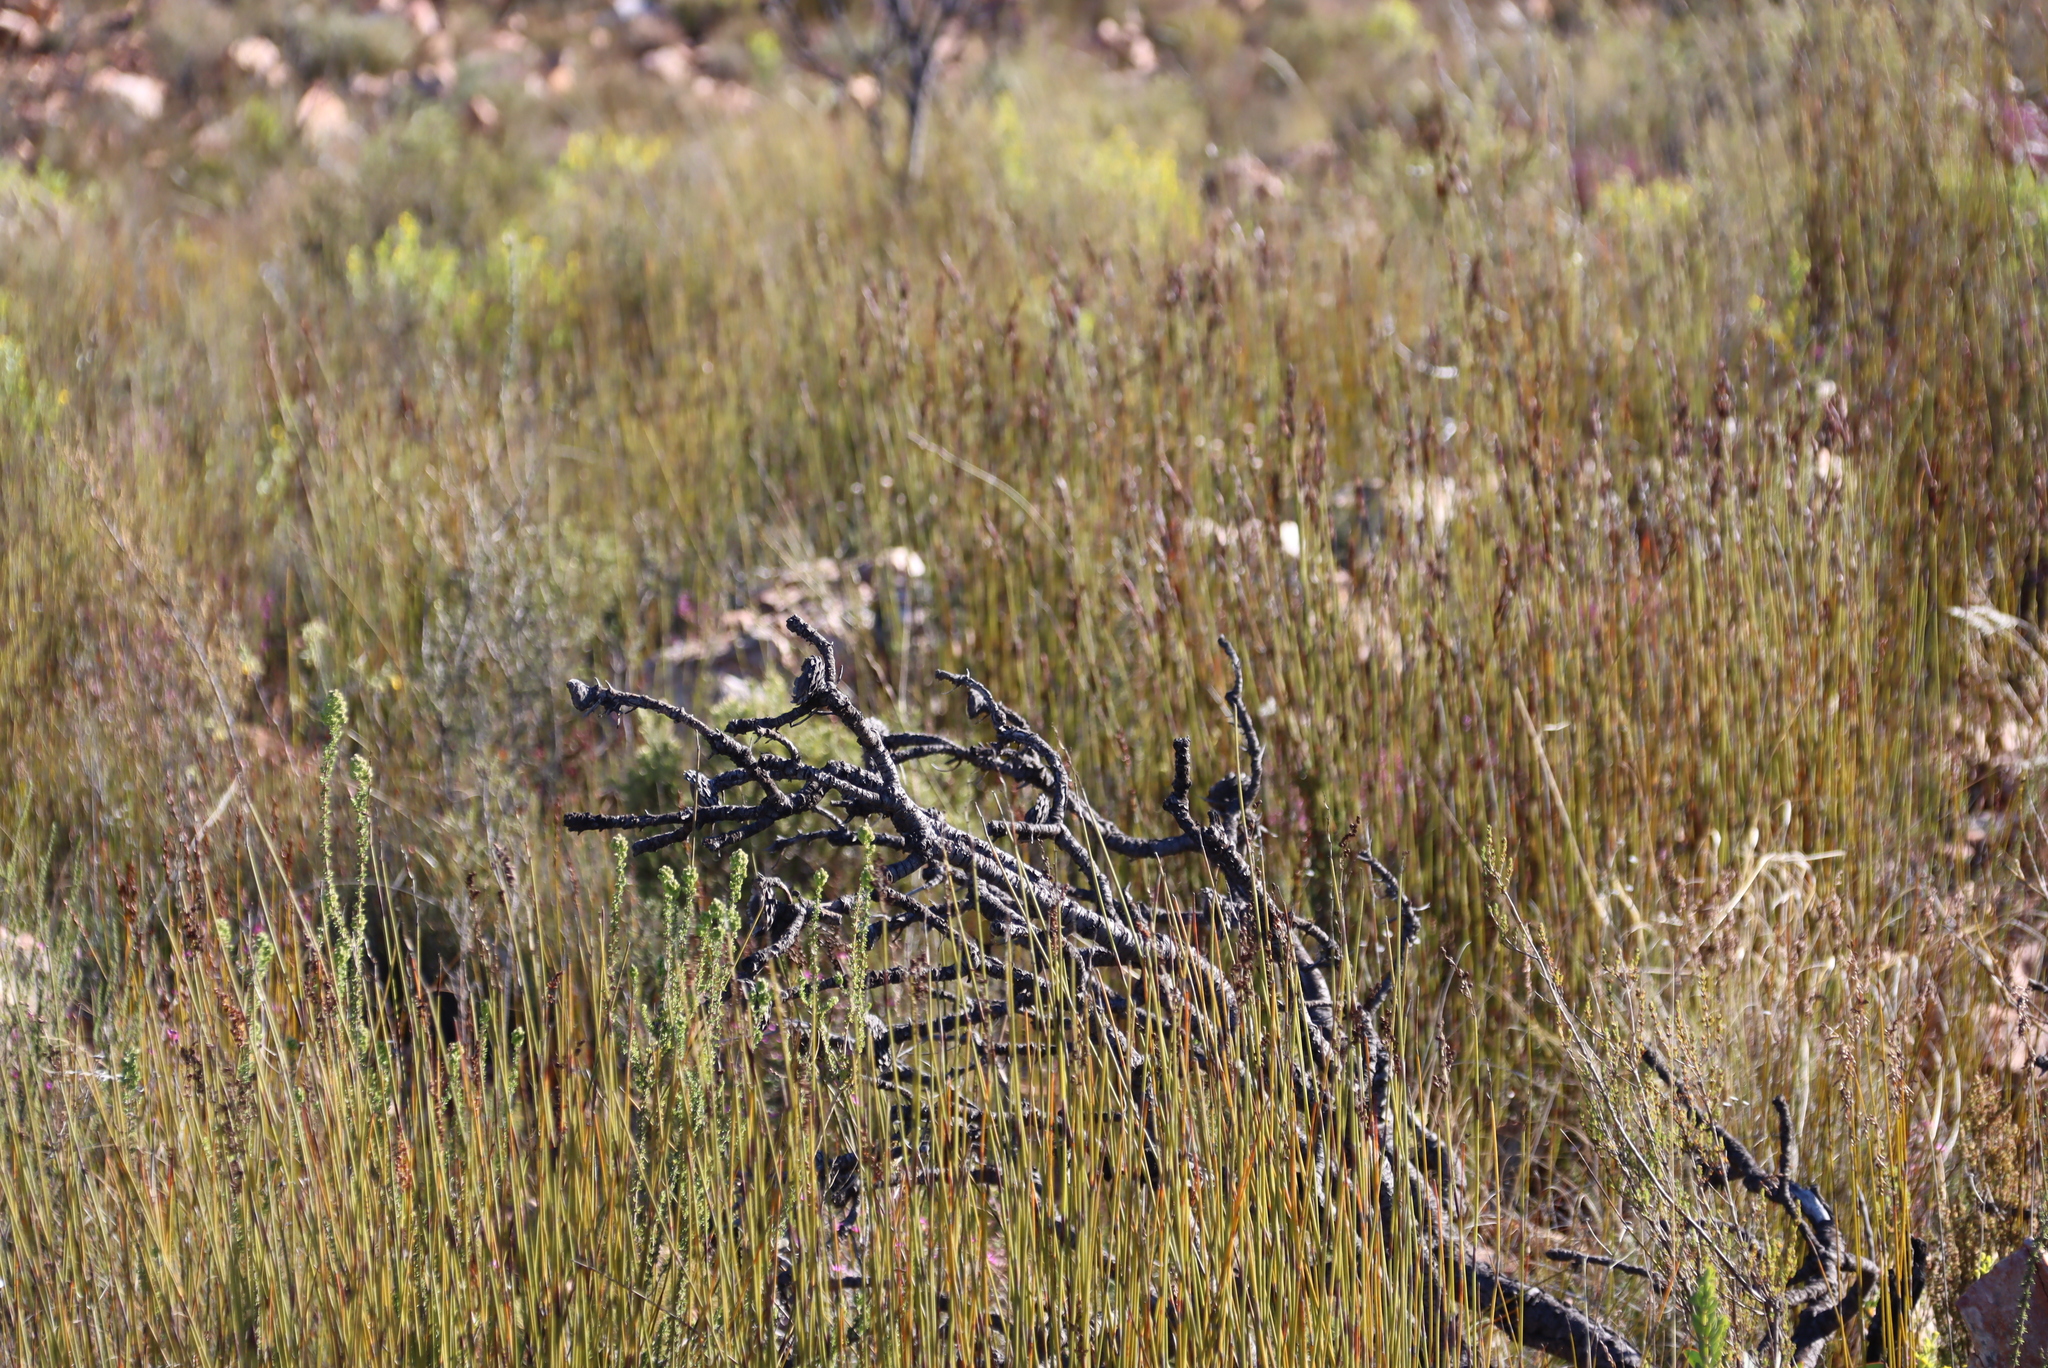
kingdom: Plantae
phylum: Tracheophyta
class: Magnoliopsida
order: Proteales
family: Proteaceae
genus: Protea
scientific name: Protea lorifolia
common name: Strap-leaved protea
